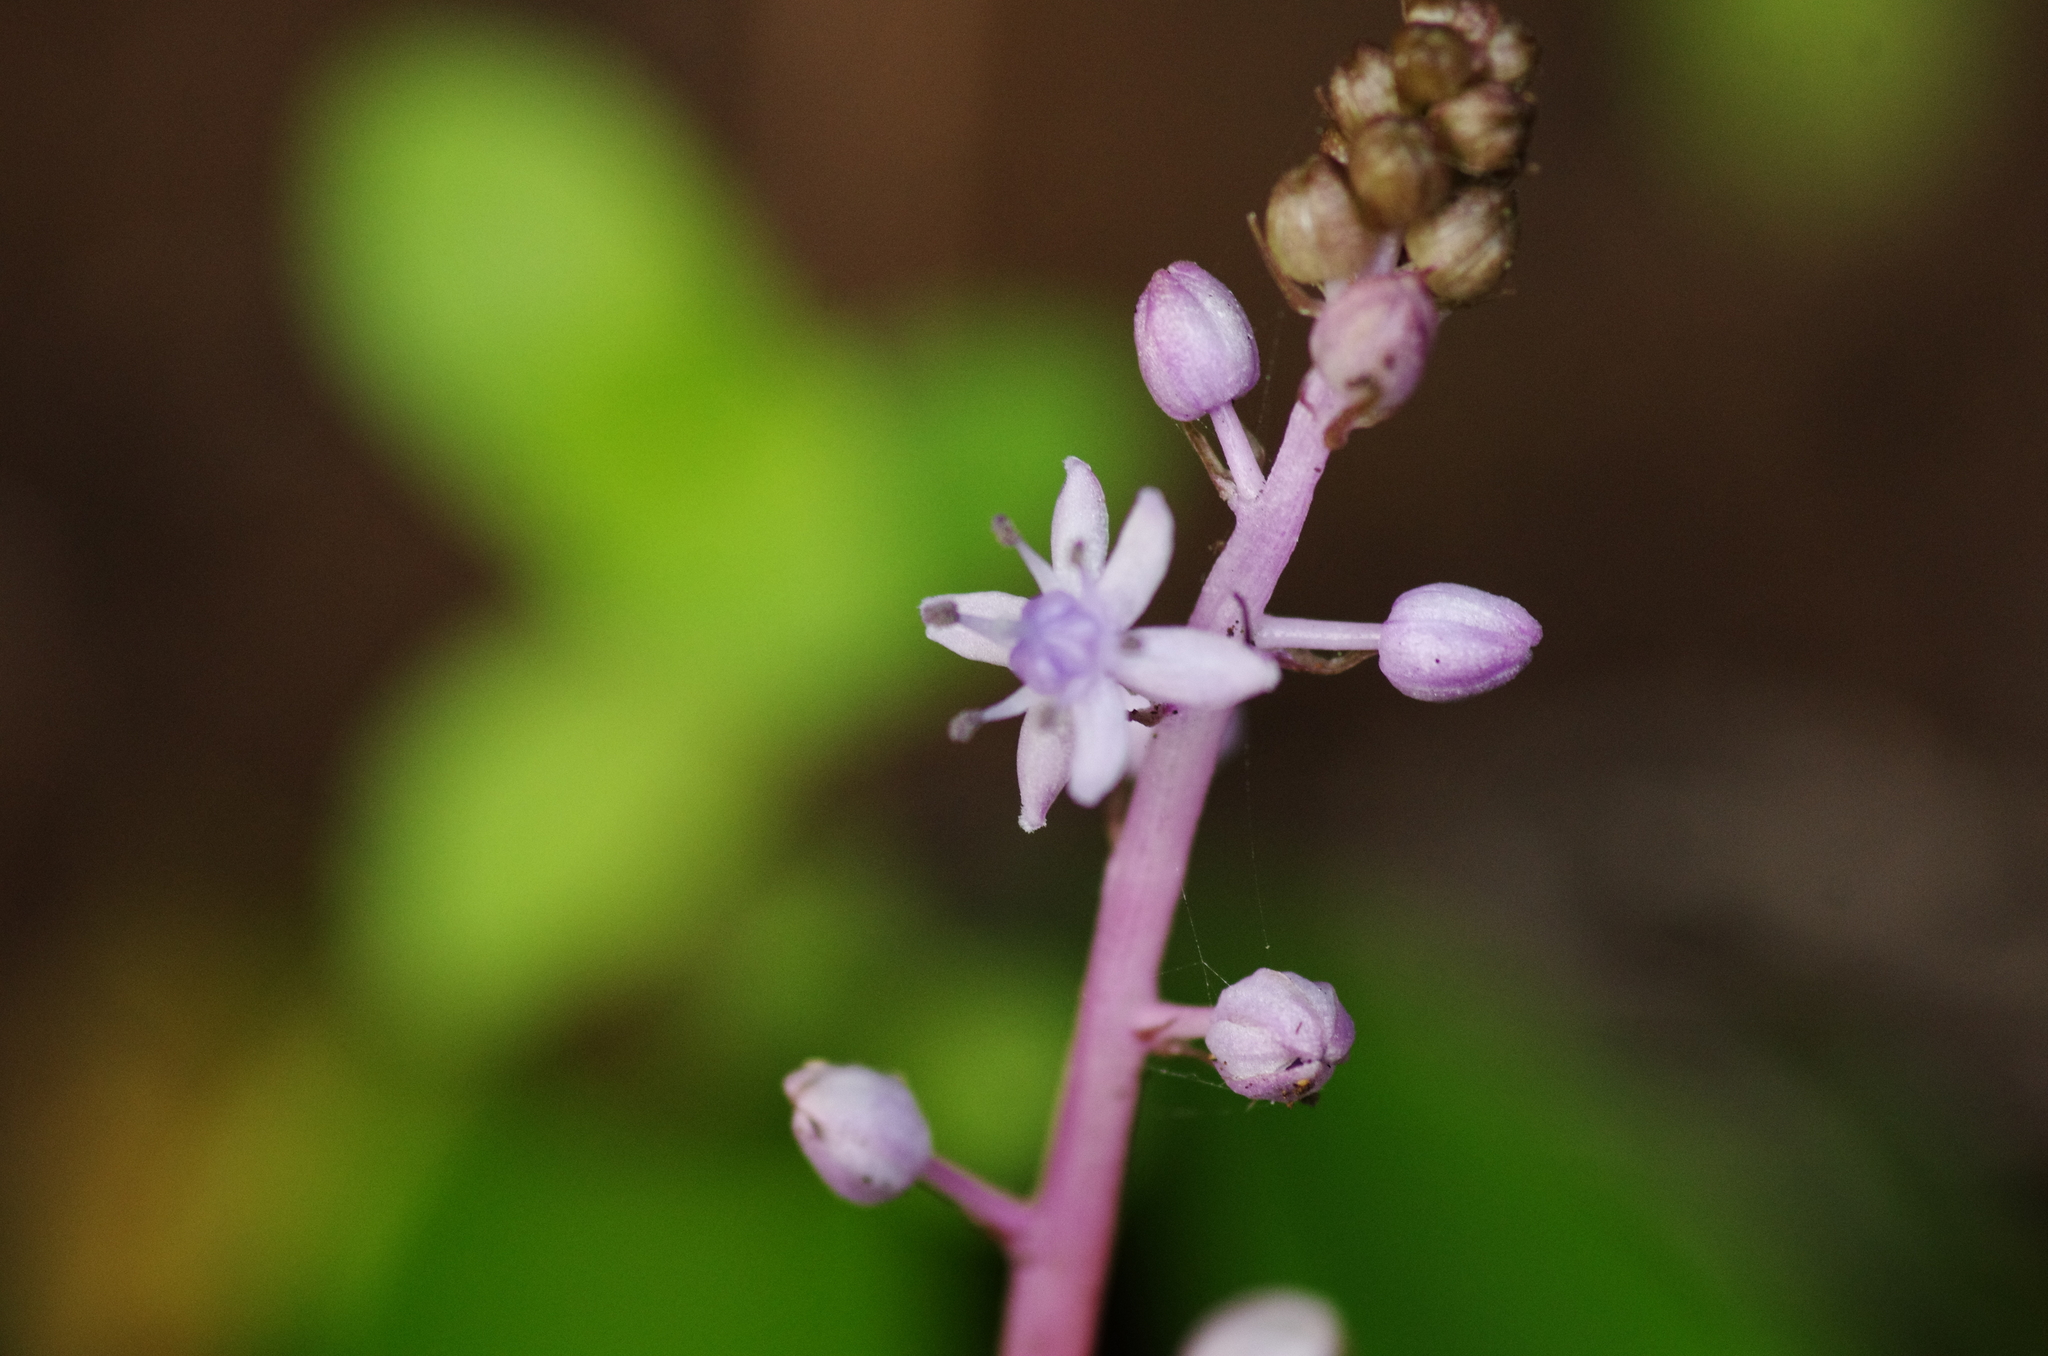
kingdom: Plantae
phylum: Tracheophyta
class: Liliopsida
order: Asparagales
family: Asparagaceae
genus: Scilla
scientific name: Scilla haemorrhoidalis
